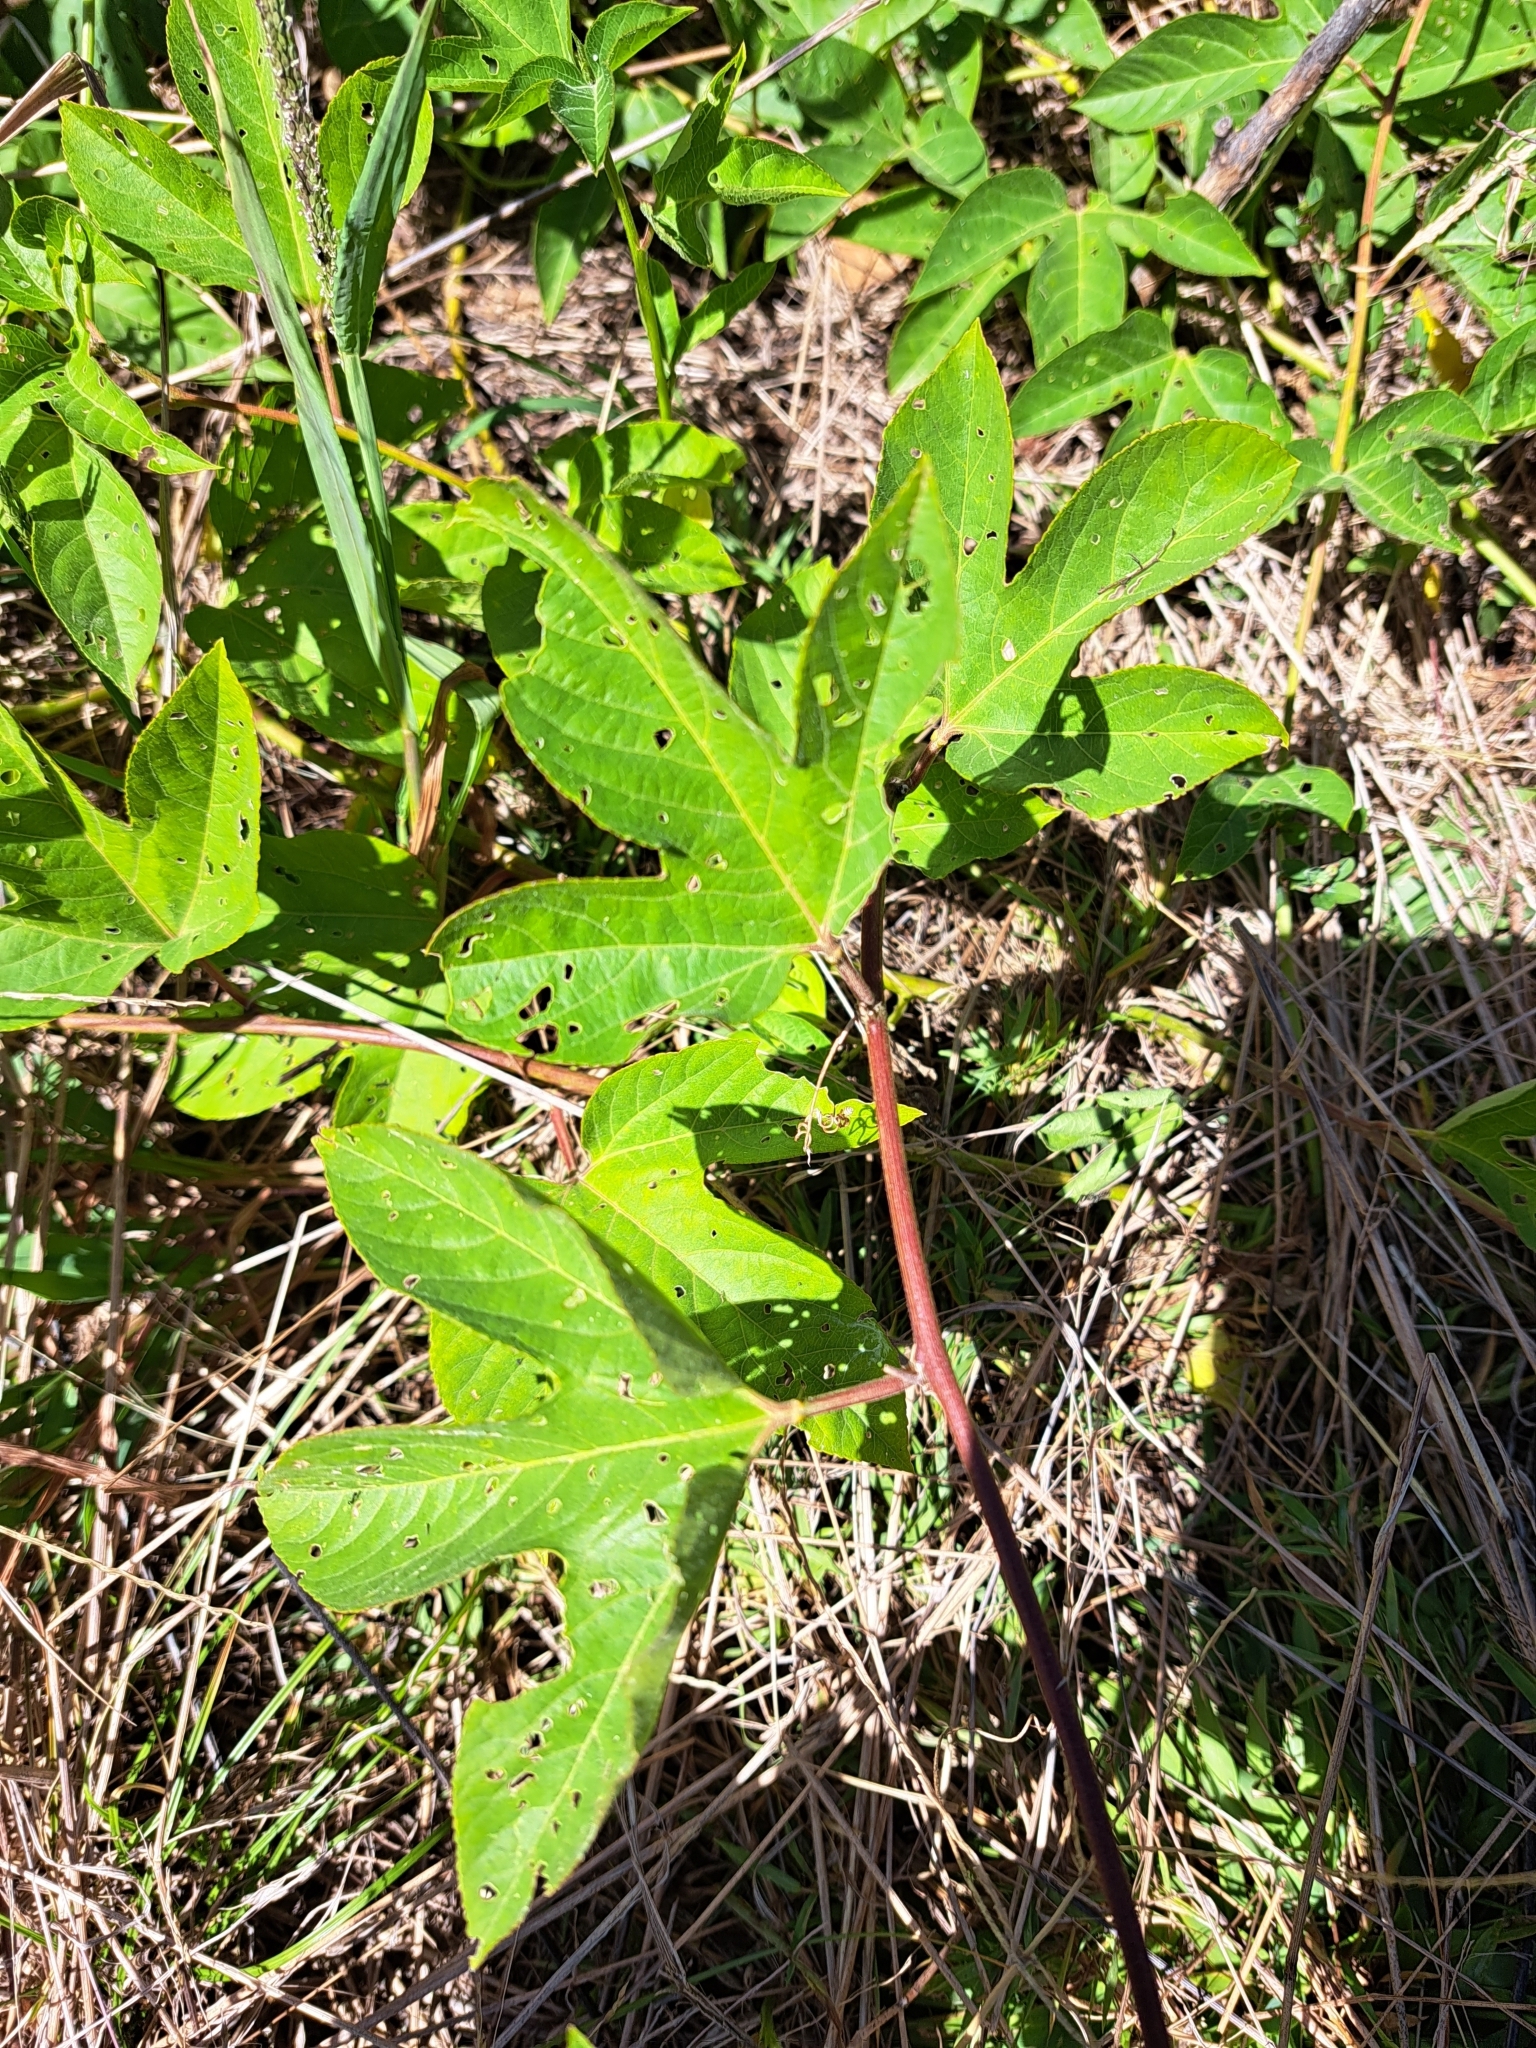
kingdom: Plantae
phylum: Tracheophyta
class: Magnoliopsida
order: Malpighiales
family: Passifloraceae
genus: Passiflora
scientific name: Passiflora incarnata
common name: Apricot-vine
